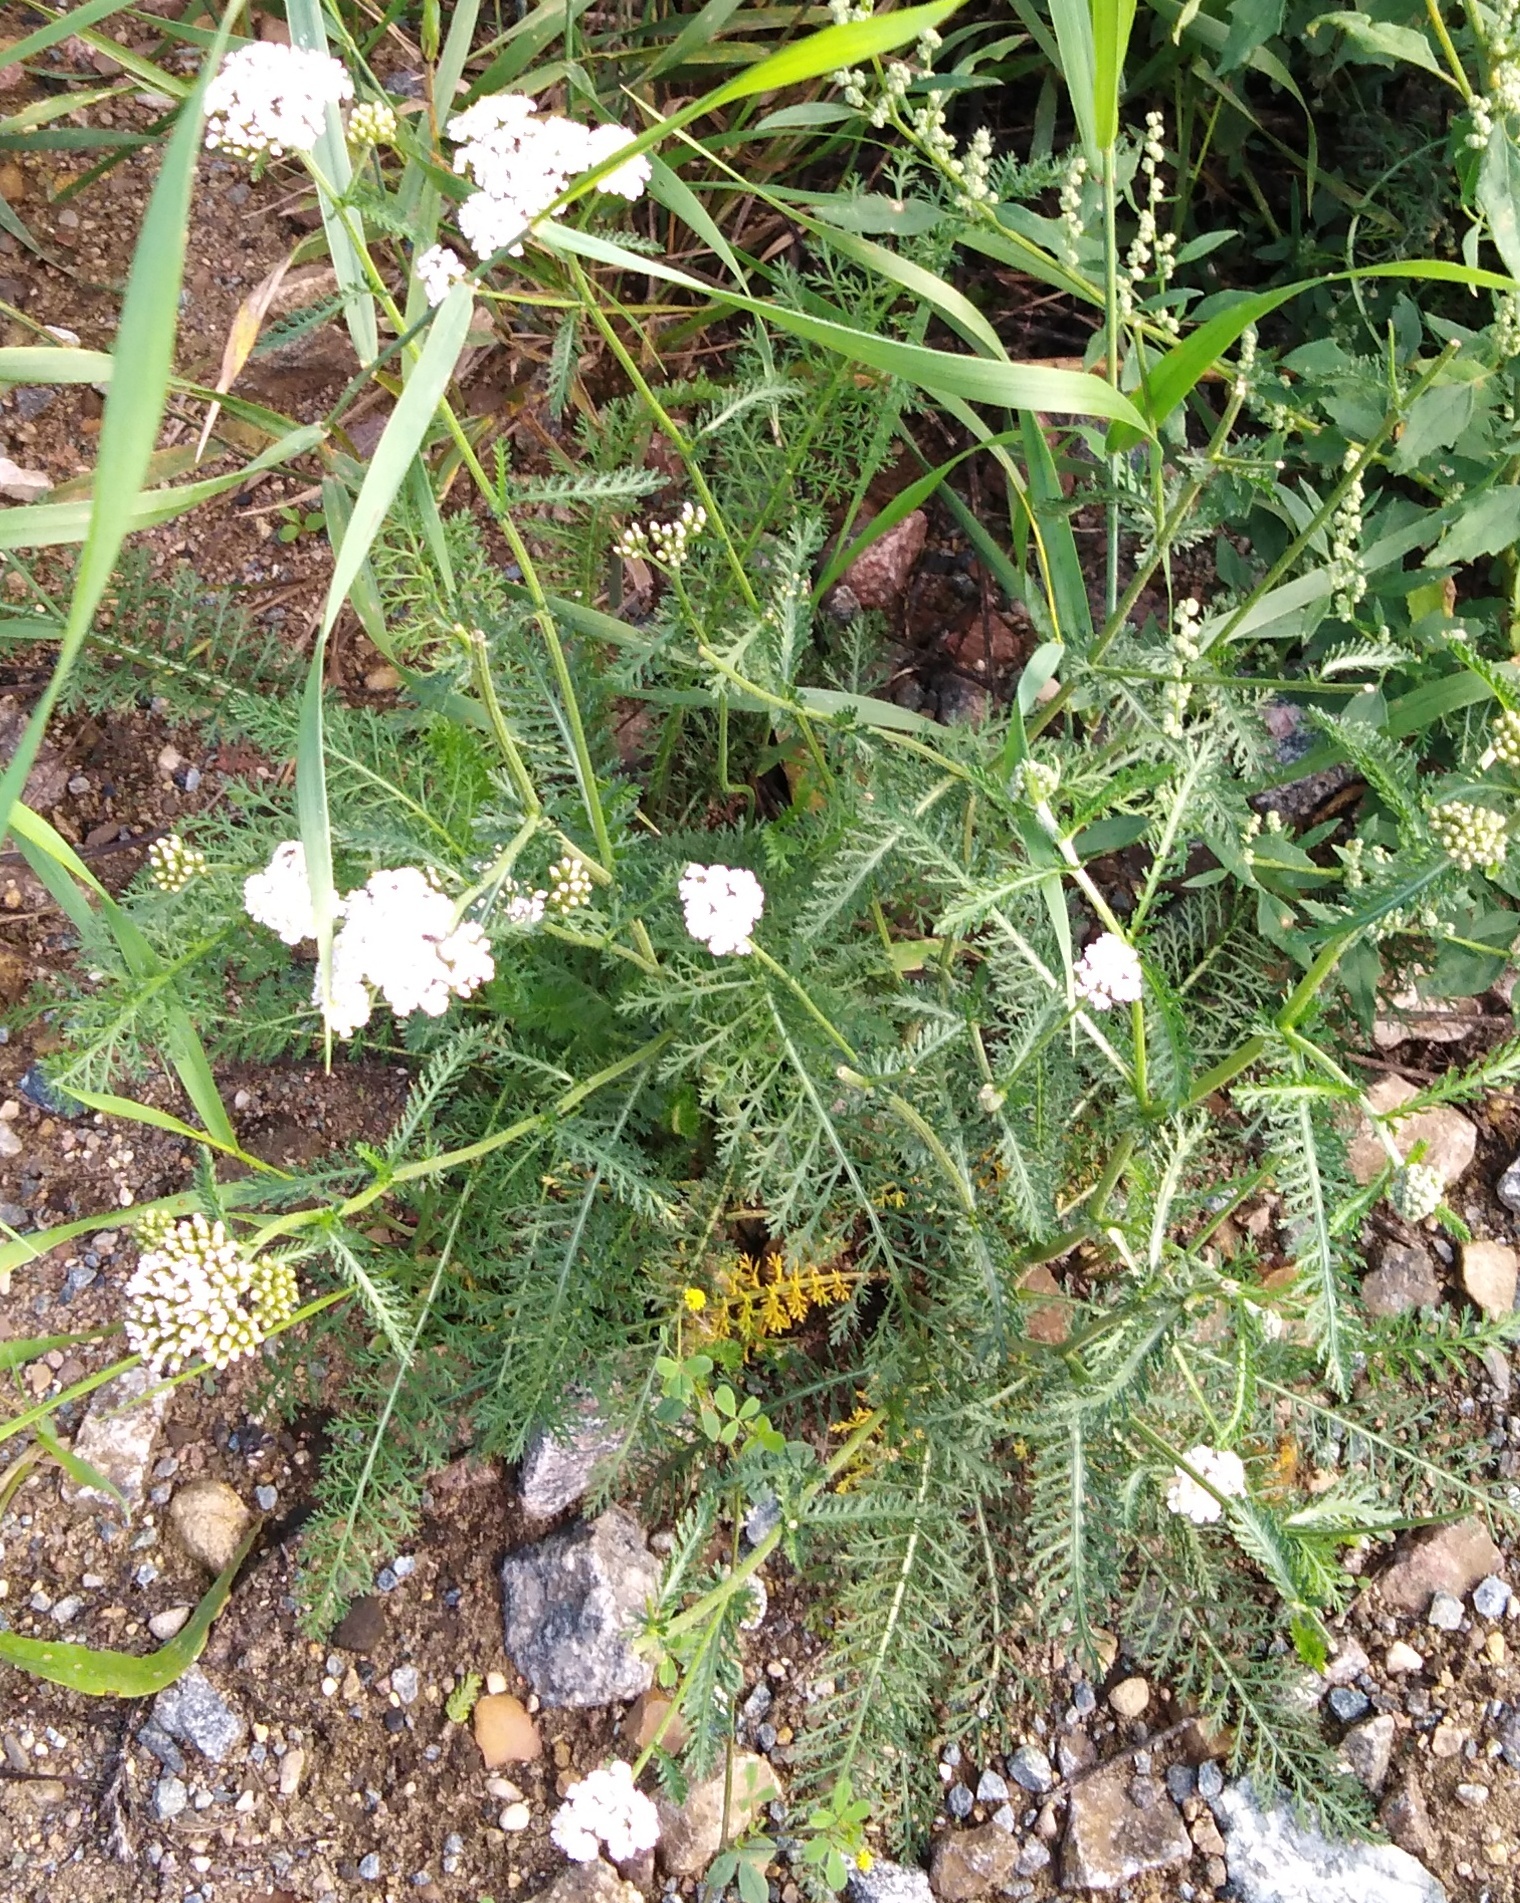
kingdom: Plantae
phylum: Tracheophyta
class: Magnoliopsida
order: Asterales
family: Asteraceae
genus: Achillea
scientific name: Achillea millefolium
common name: Yarrow
